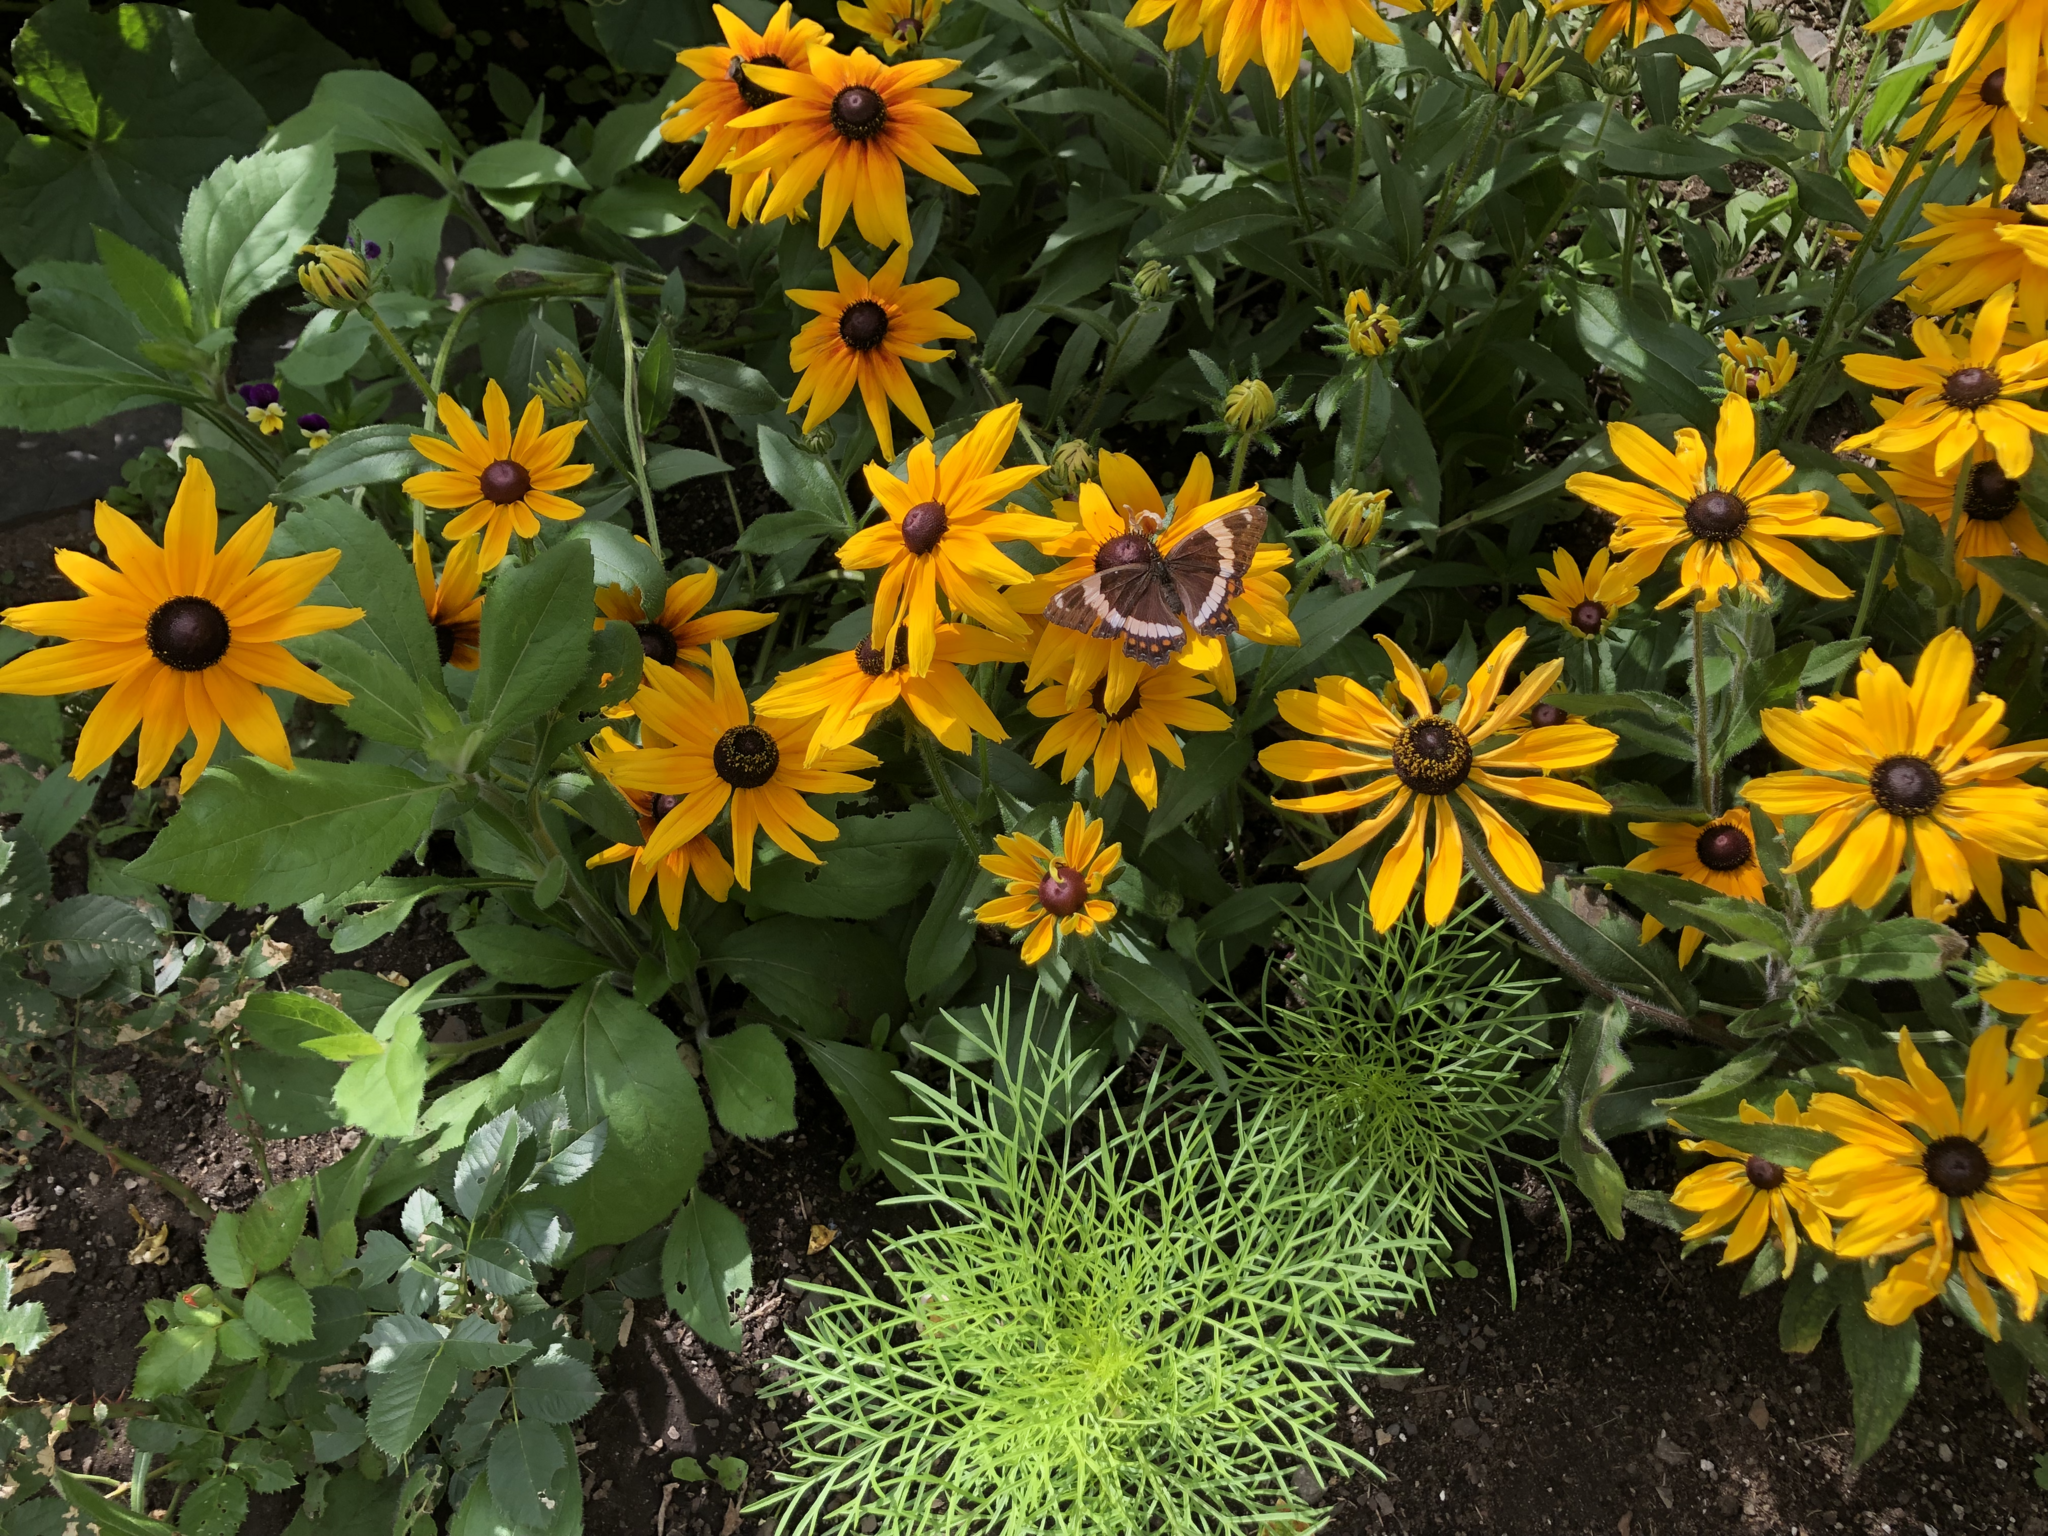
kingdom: Animalia
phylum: Arthropoda
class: Insecta
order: Lepidoptera
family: Nymphalidae
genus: Limenitis
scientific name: Limenitis arthemis
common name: Red-spotted admiral
